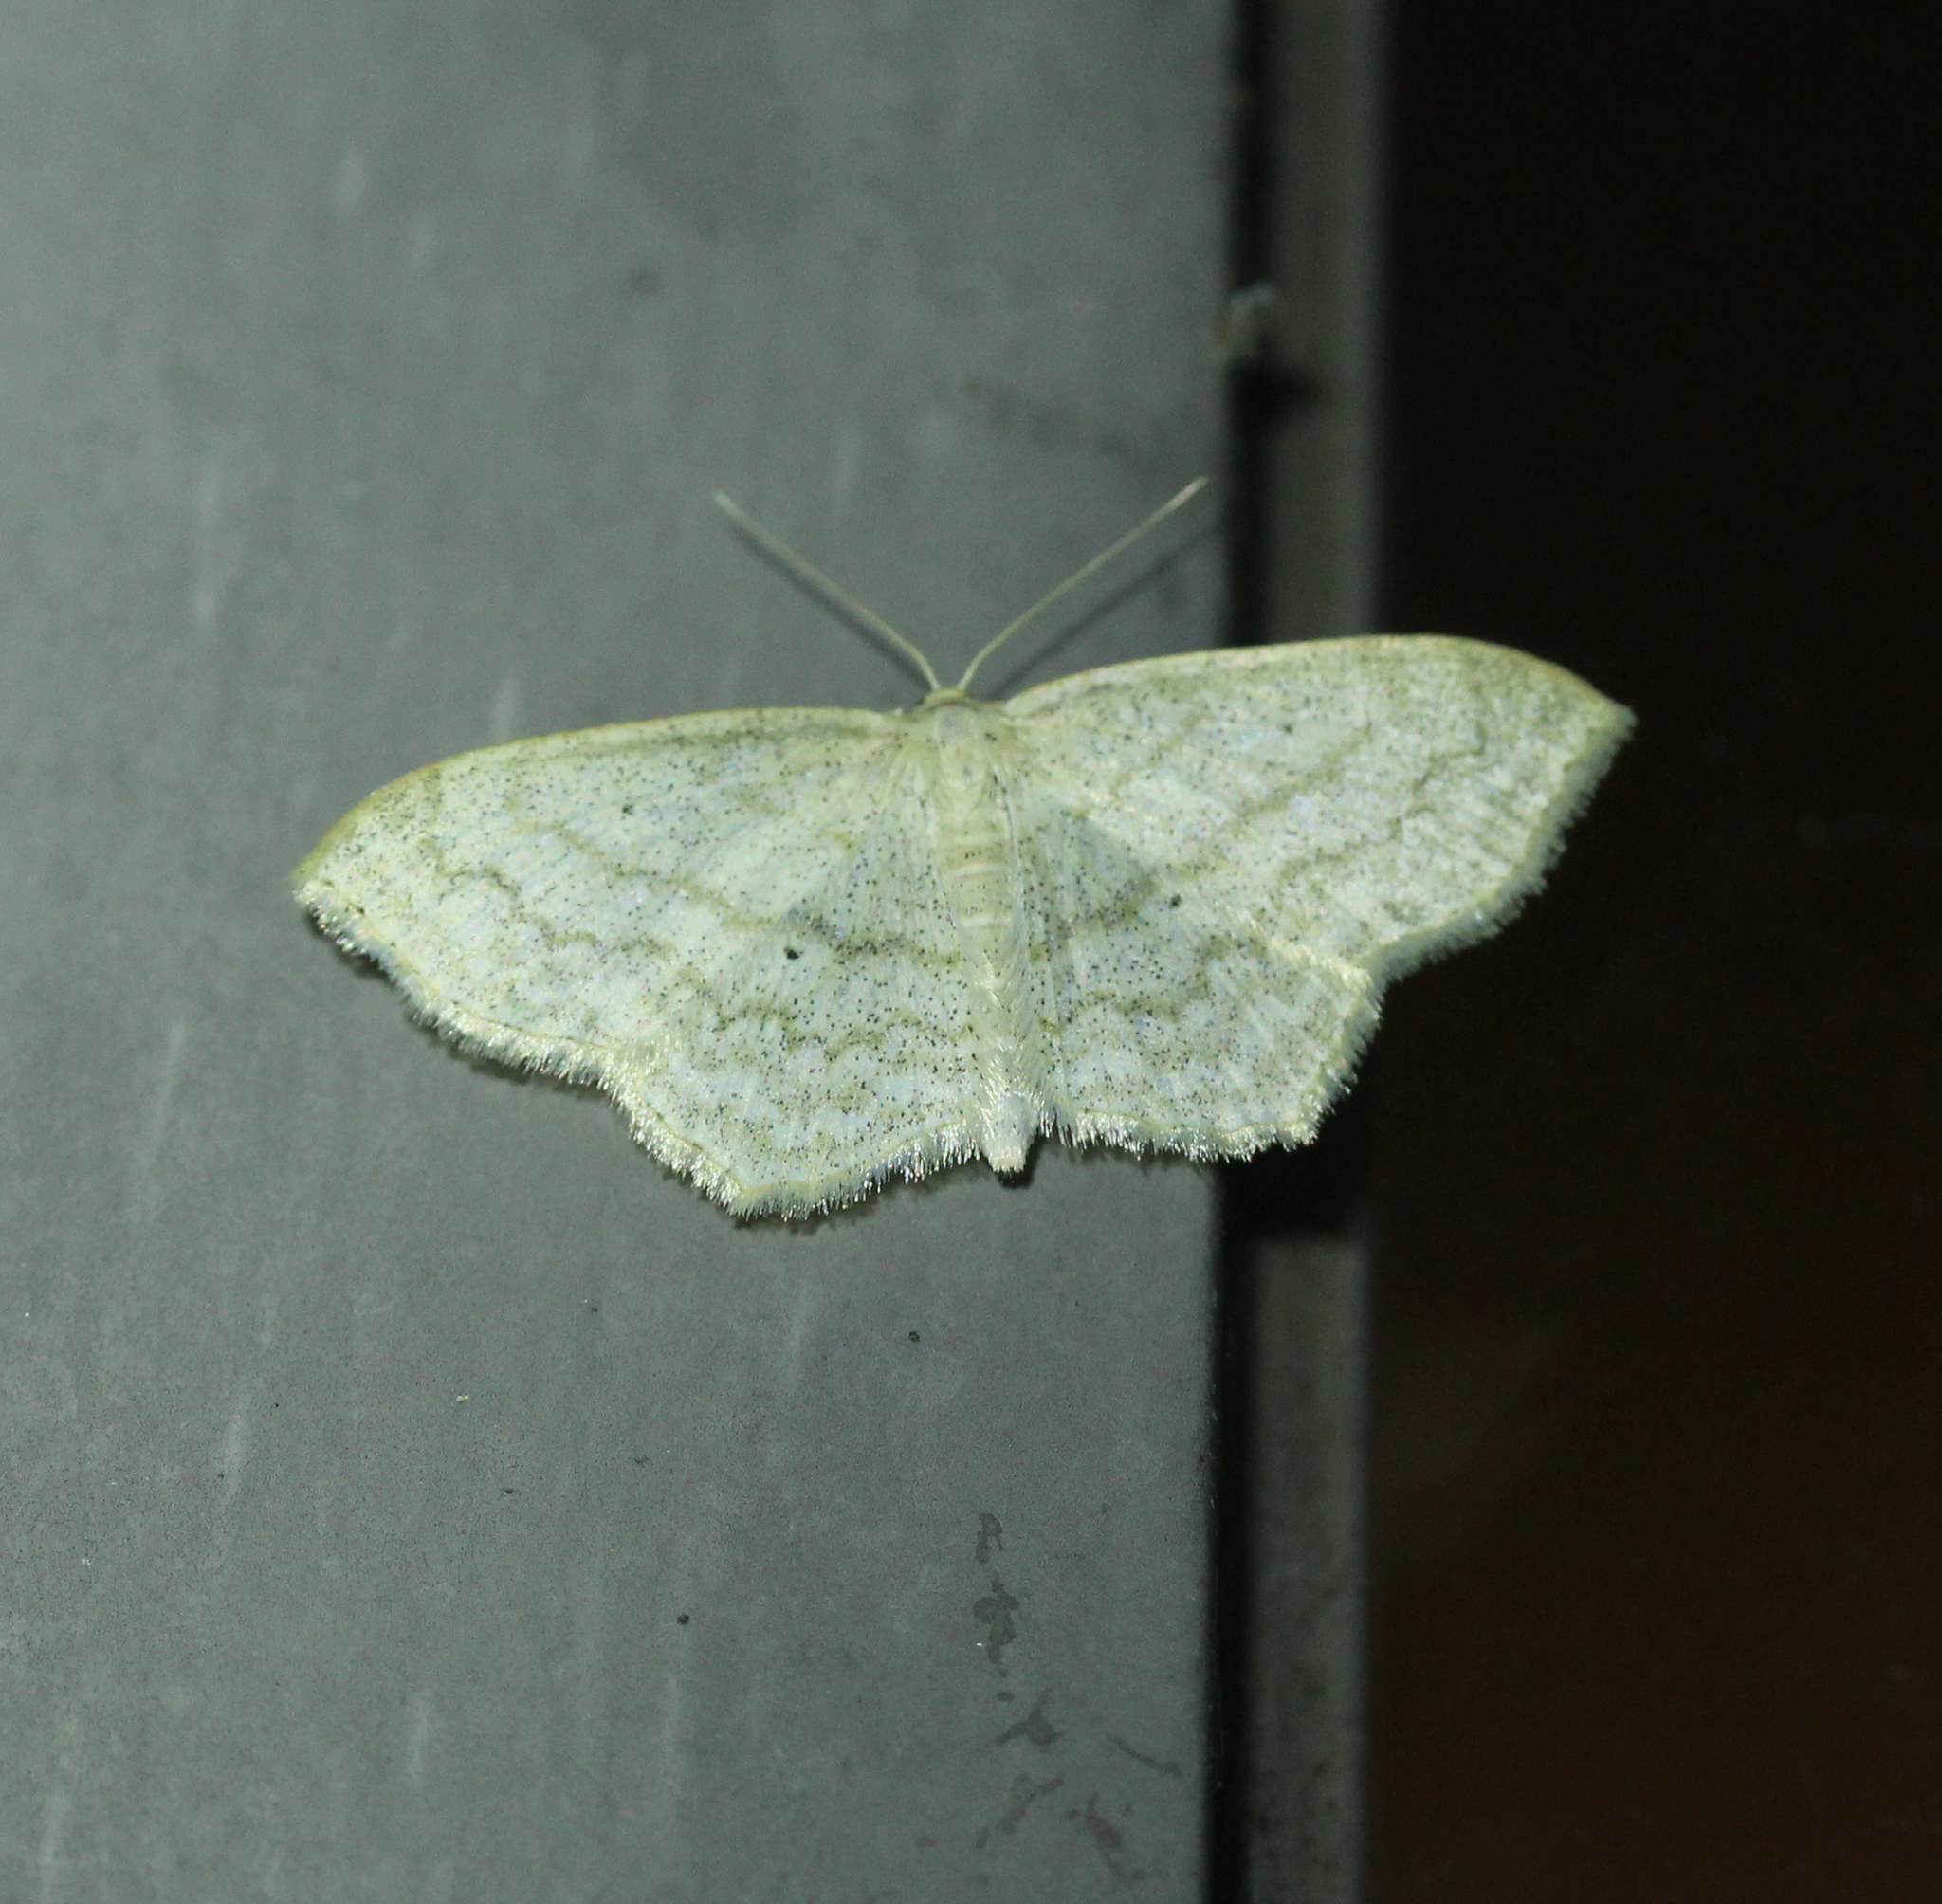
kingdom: Animalia
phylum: Arthropoda
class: Insecta
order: Lepidoptera
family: Geometridae
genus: Scopula
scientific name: Scopula limboundata
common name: Large lace border
